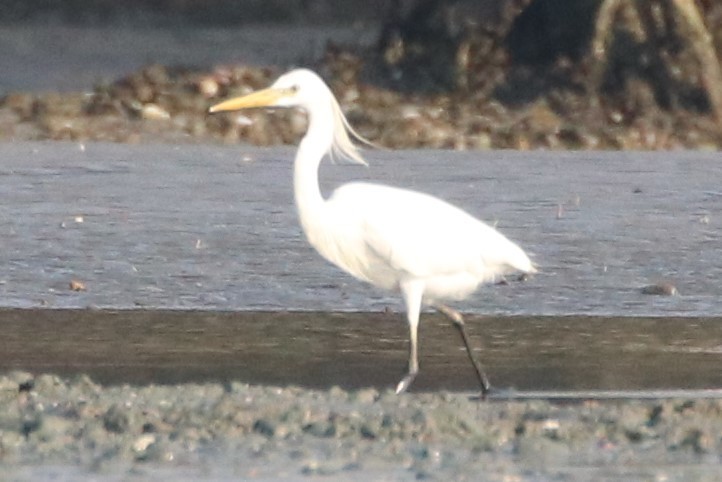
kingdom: Animalia
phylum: Chordata
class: Aves
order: Pelecaniformes
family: Ardeidae
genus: Egretta
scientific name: Egretta eulophotes
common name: Chinese egret
